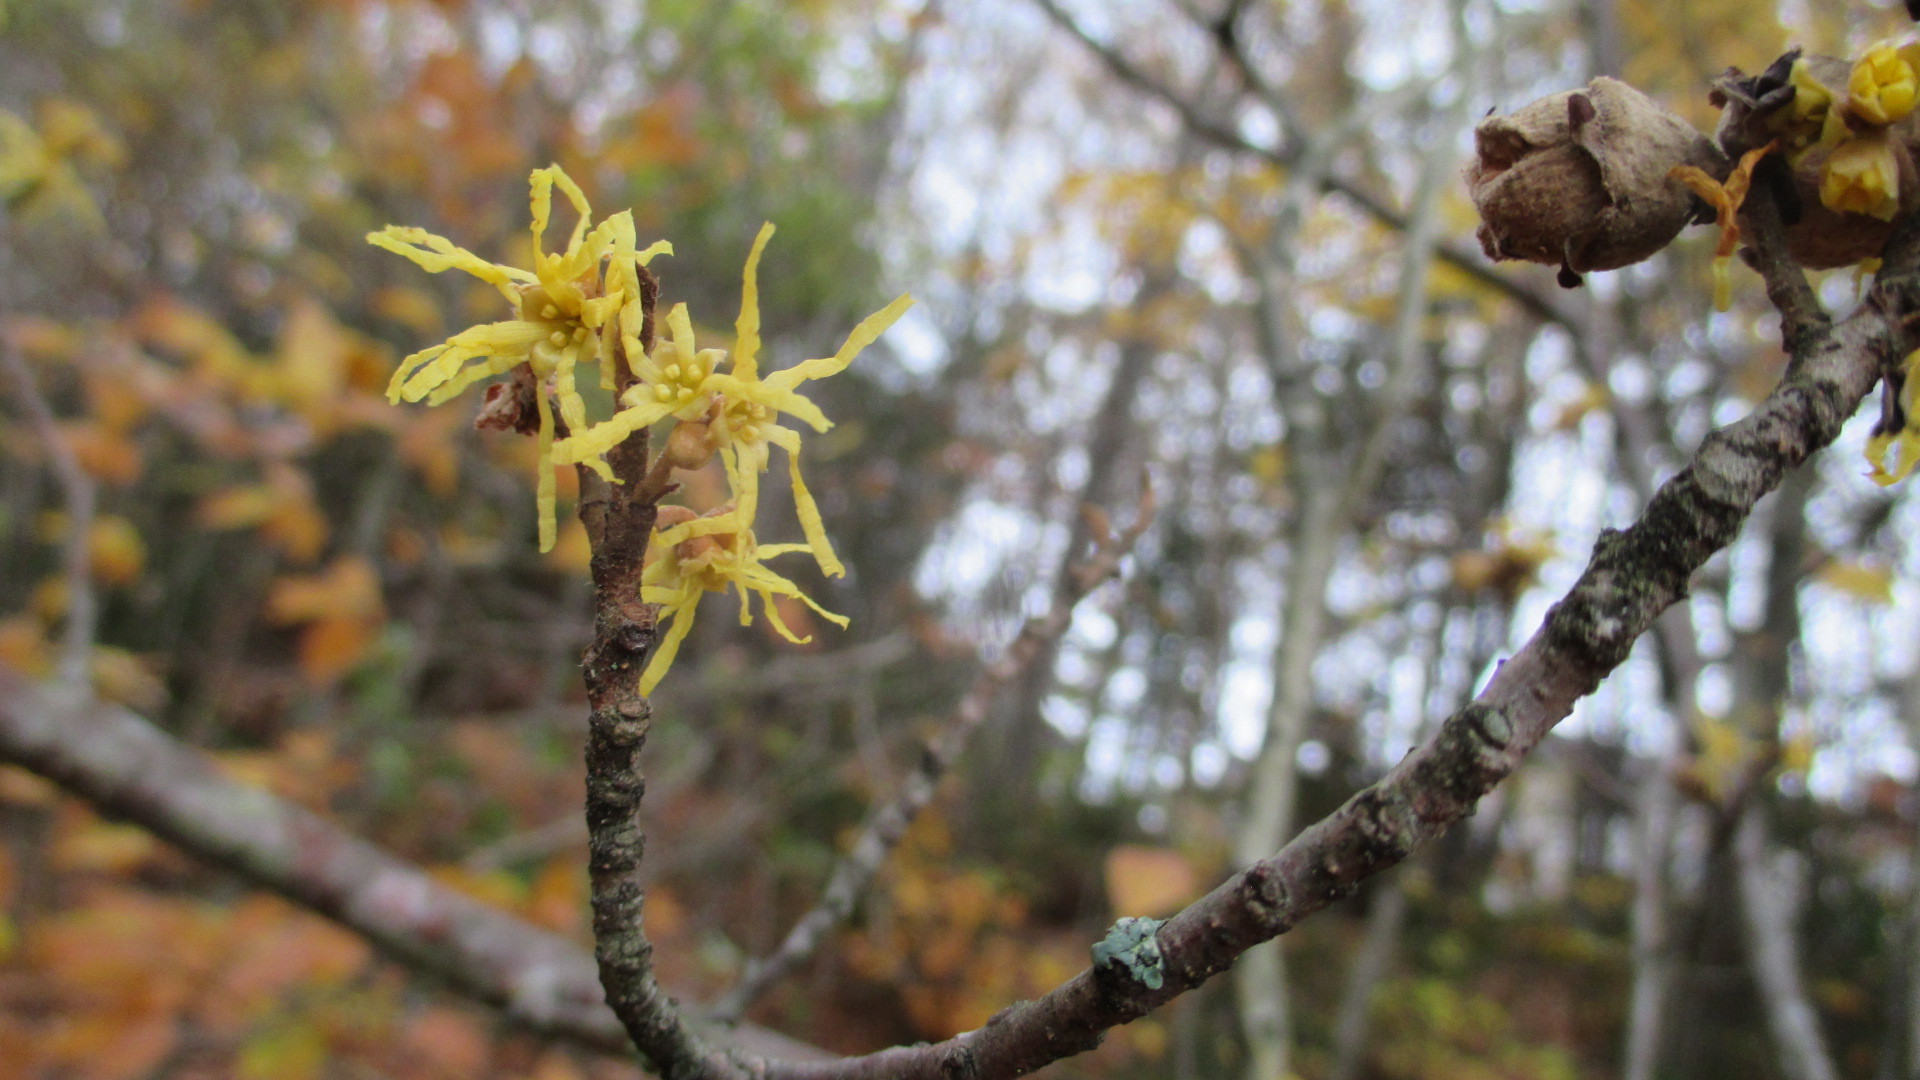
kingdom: Plantae
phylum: Tracheophyta
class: Magnoliopsida
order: Saxifragales
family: Hamamelidaceae
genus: Hamamelis
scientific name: Hamamelis virginiana
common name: Witch-hazel
